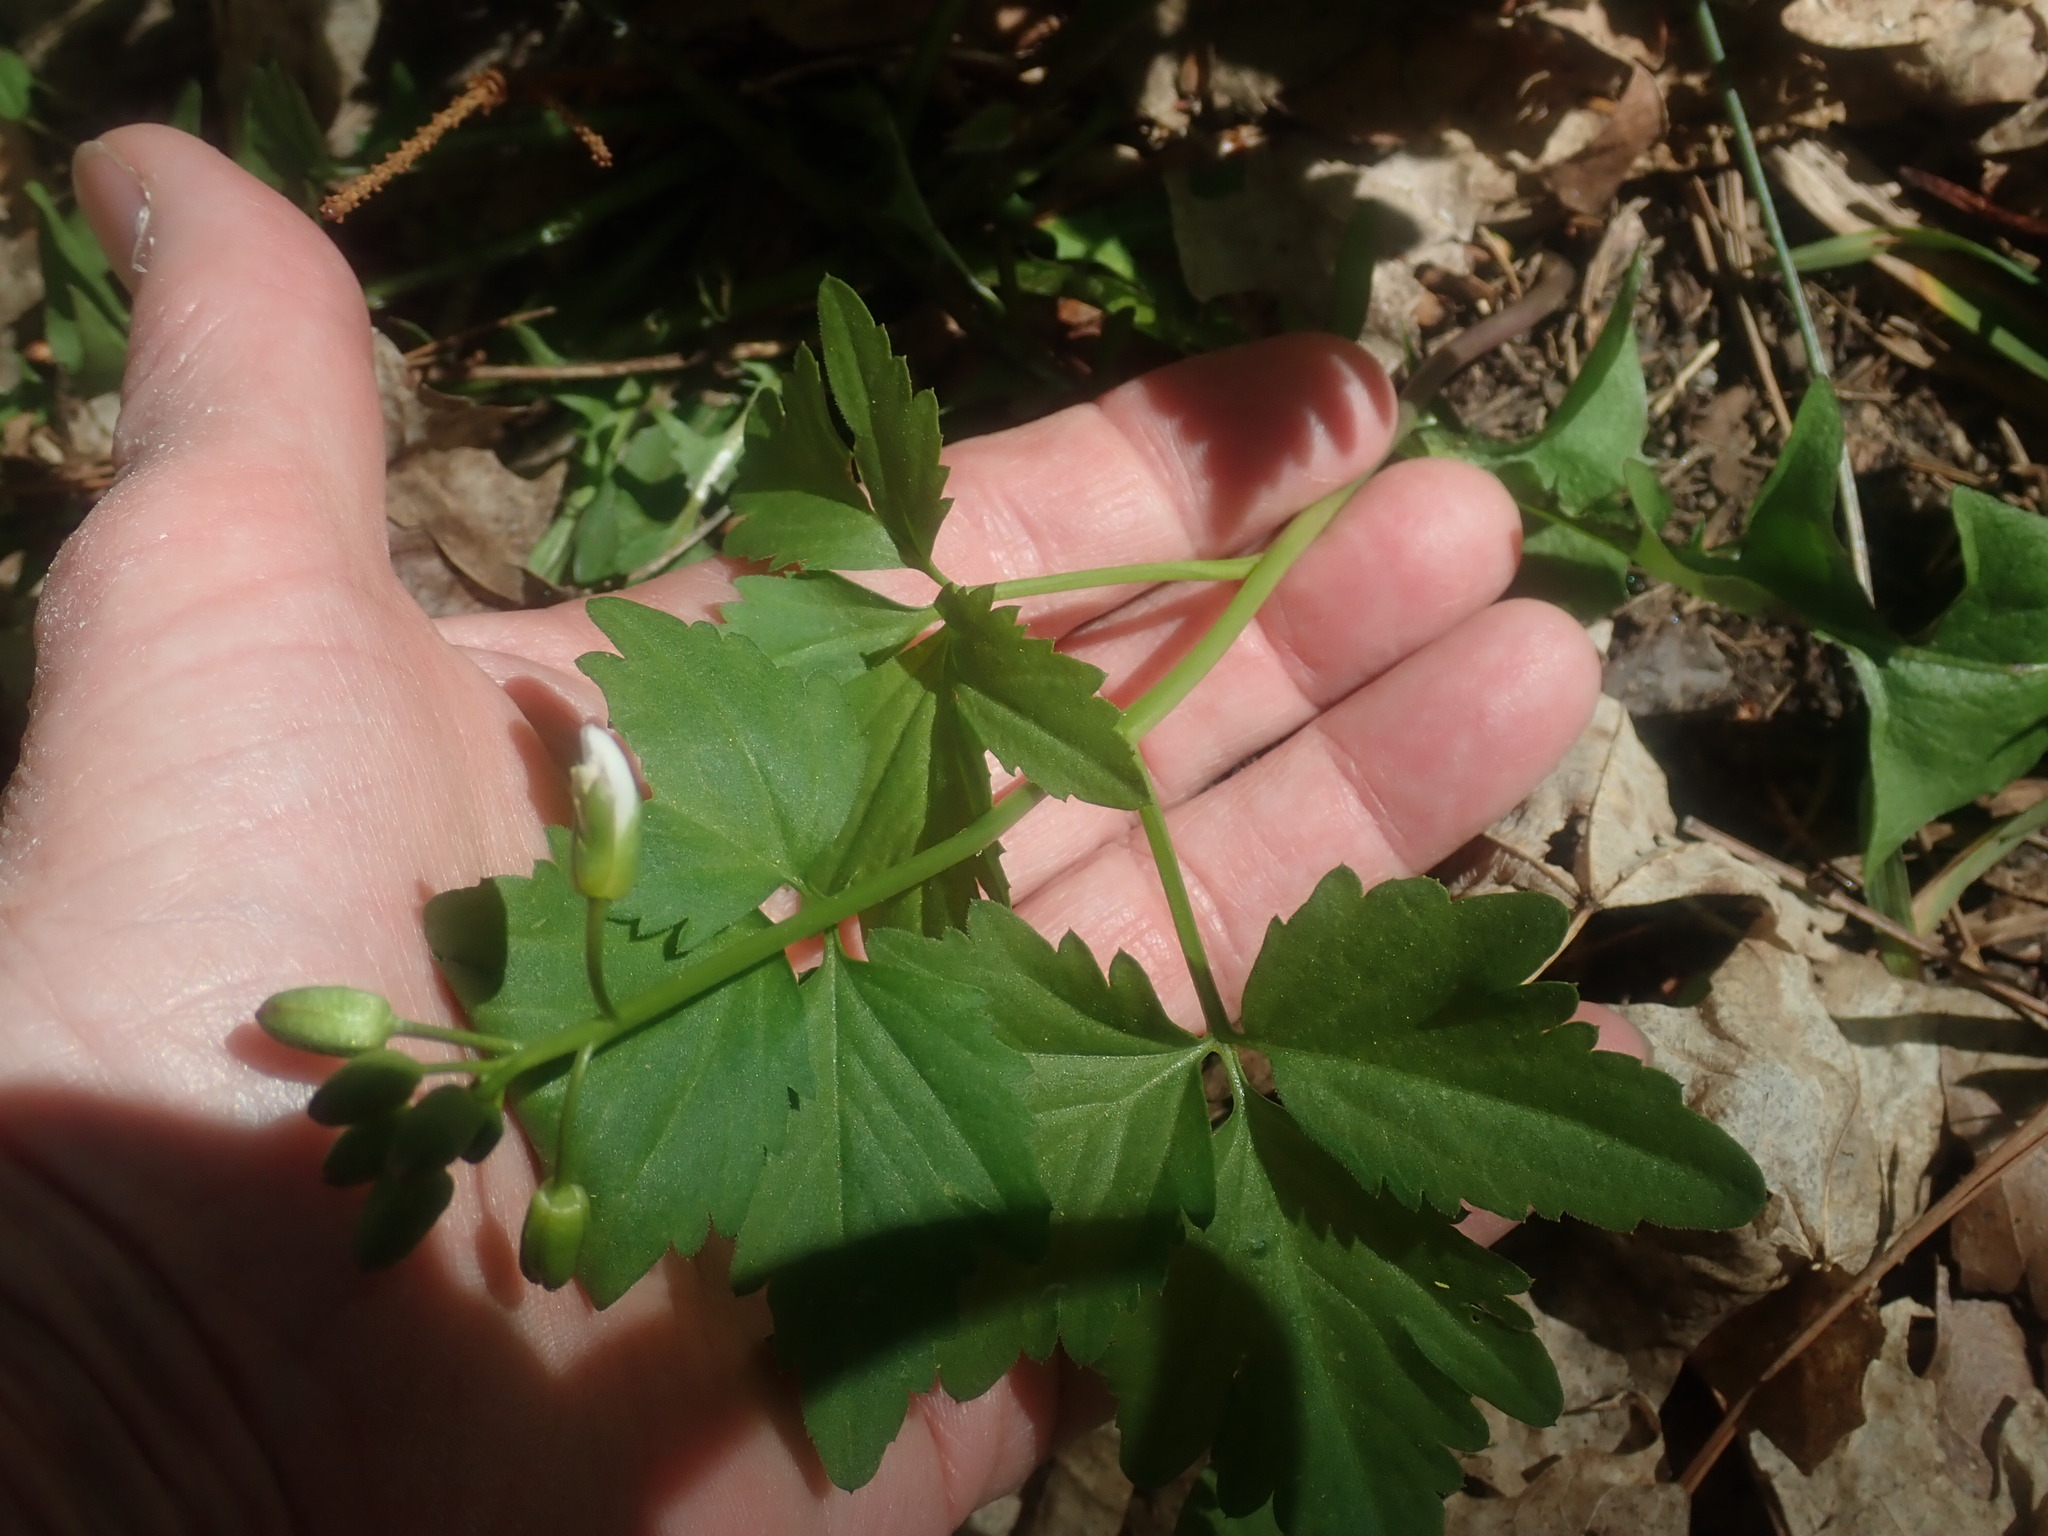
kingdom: Plantae
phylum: Tracheophyta
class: Magnoliopsida
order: Brassicales
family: Brassicaceae
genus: Cardamine
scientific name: Cardamine maxima
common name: Great bittercress
